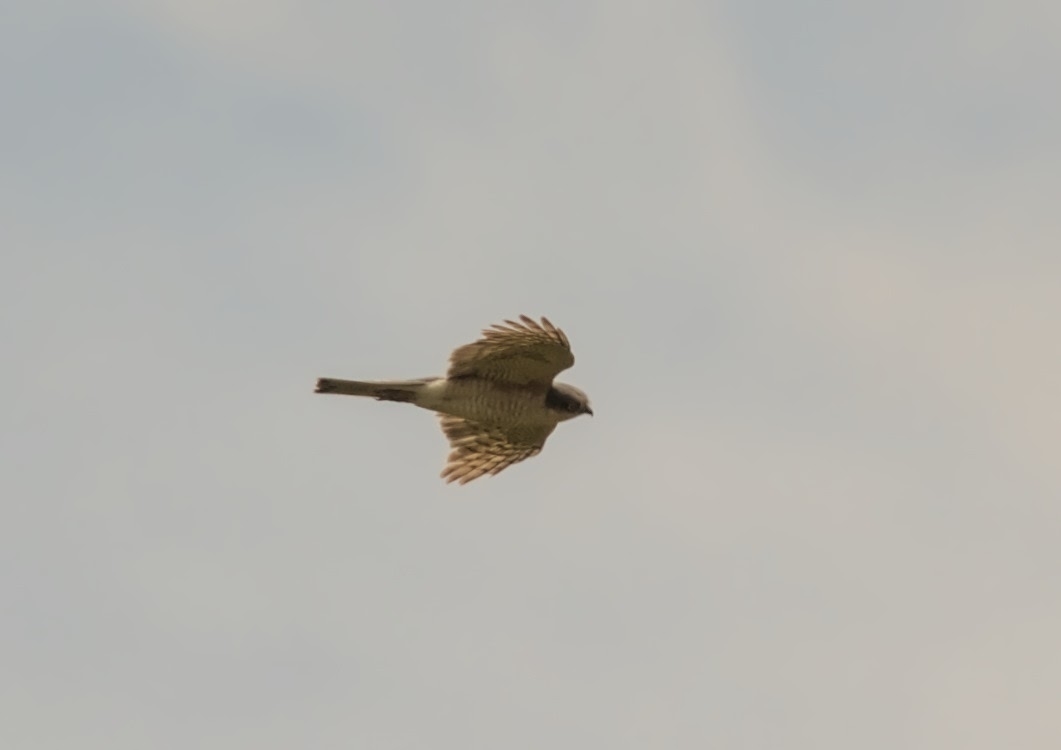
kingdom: Animalia
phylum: Chordata
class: Aves
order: Accipitriformes
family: Accipitridae
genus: Accipiter
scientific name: Accipiter nisus
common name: Eurasian sparrowhawk
